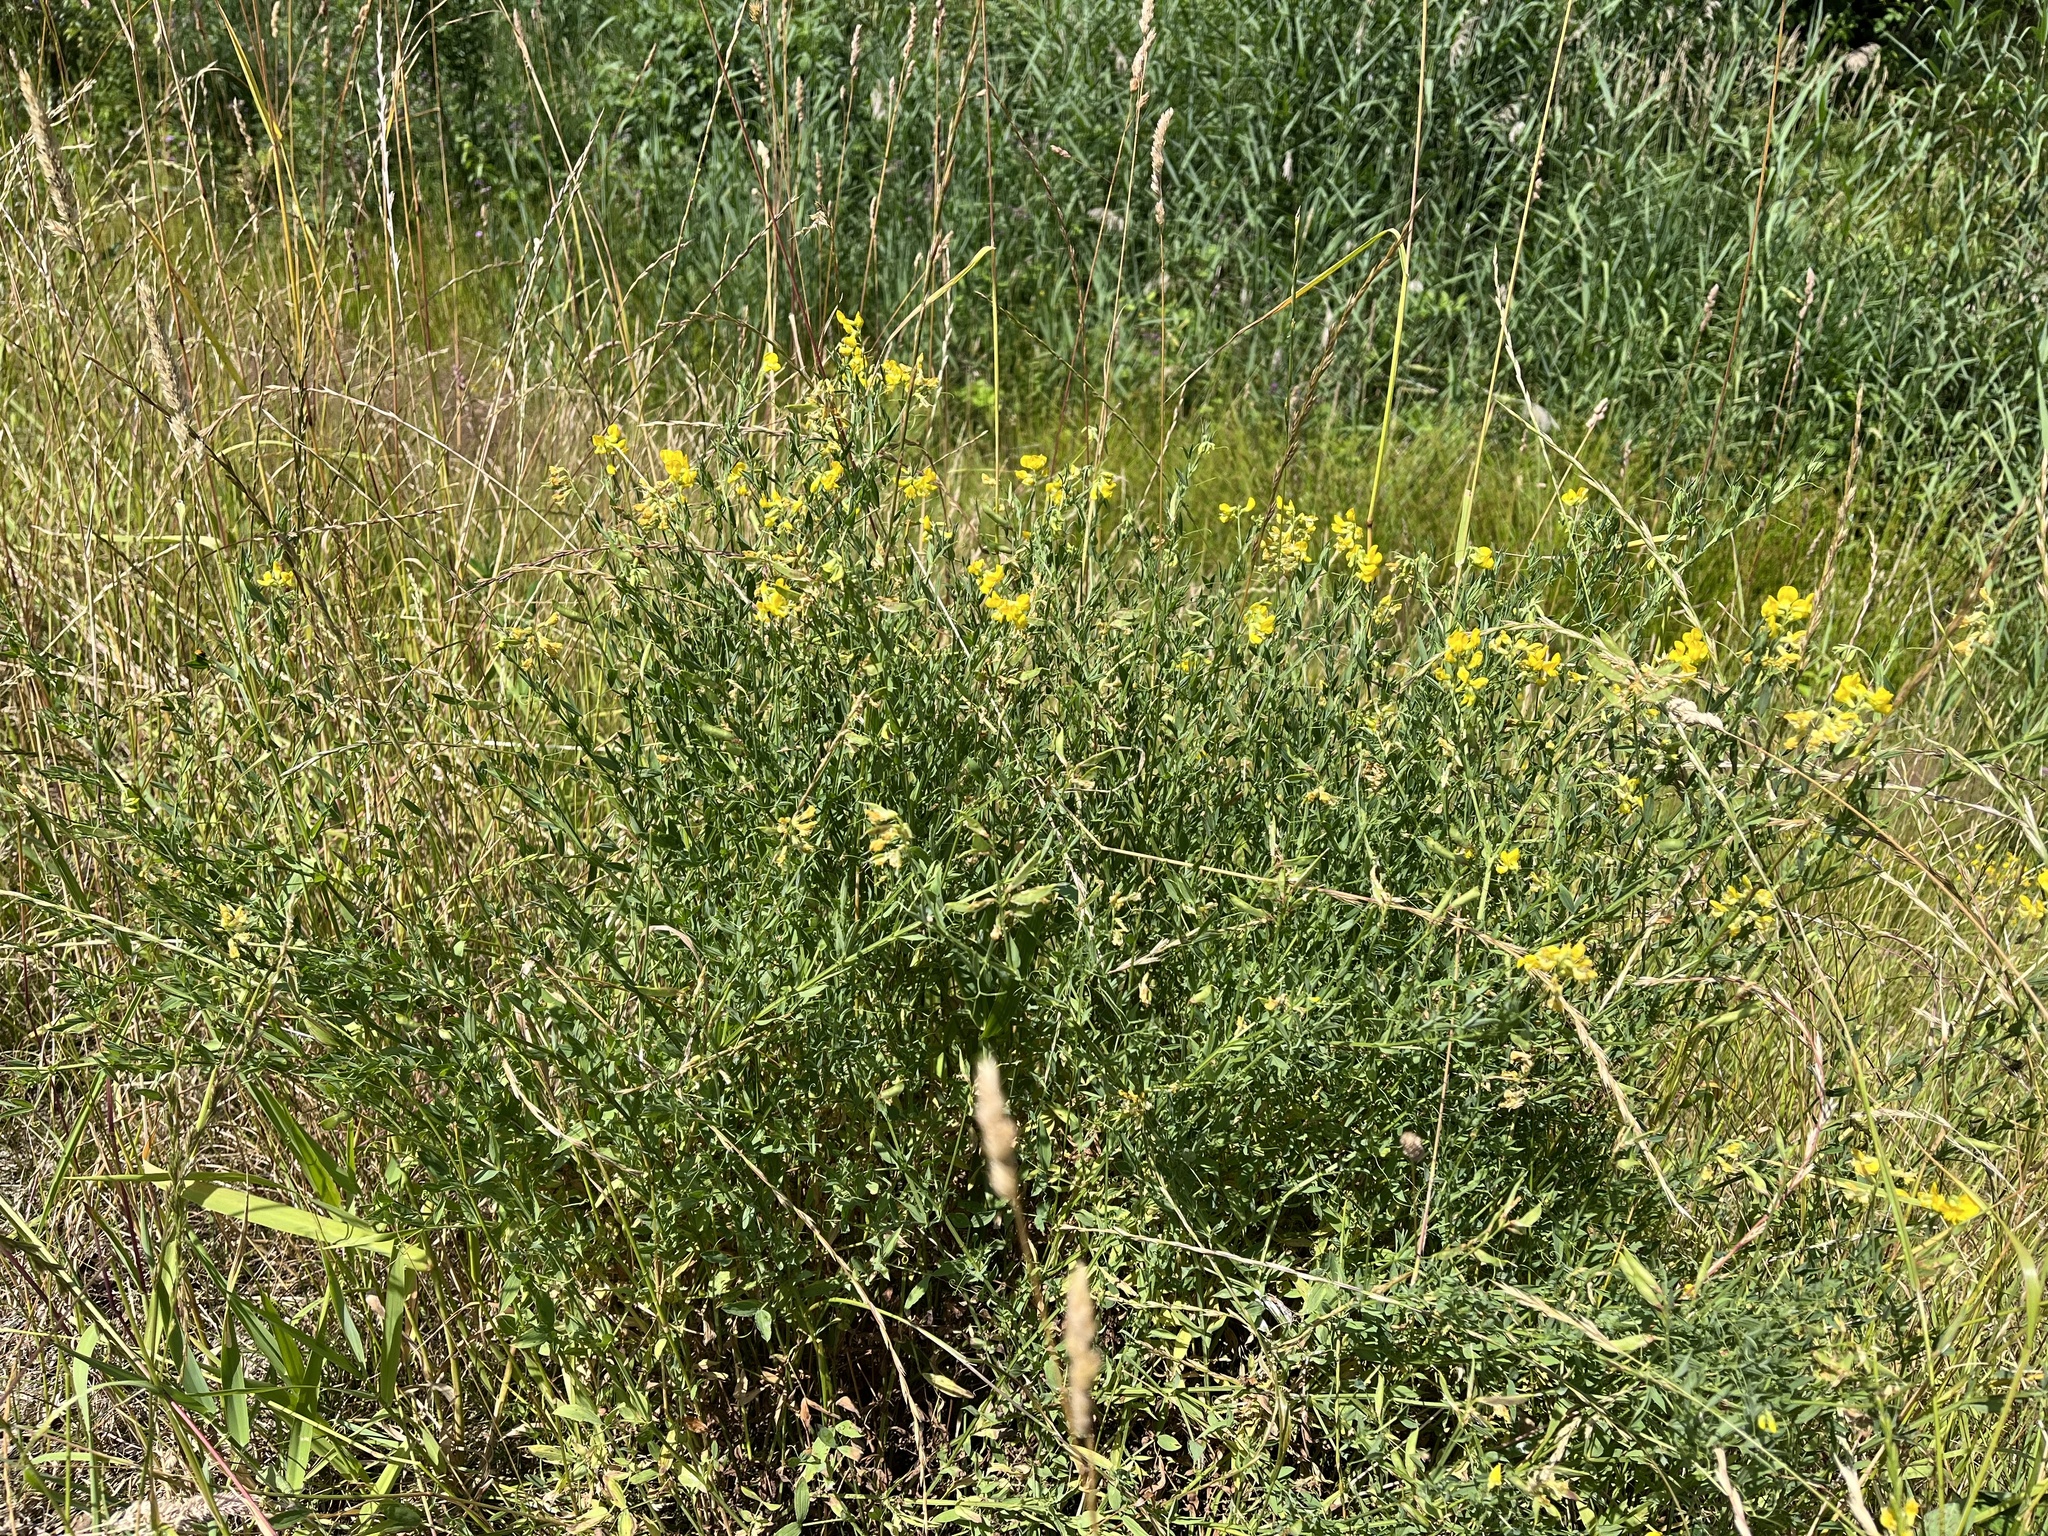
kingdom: Plantae
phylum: Tracheophyta
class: Magnoliopsida
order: Fabales
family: Fabaceae
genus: Lathyrus
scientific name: Lathyrus pratensis
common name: Meadow vetchling
